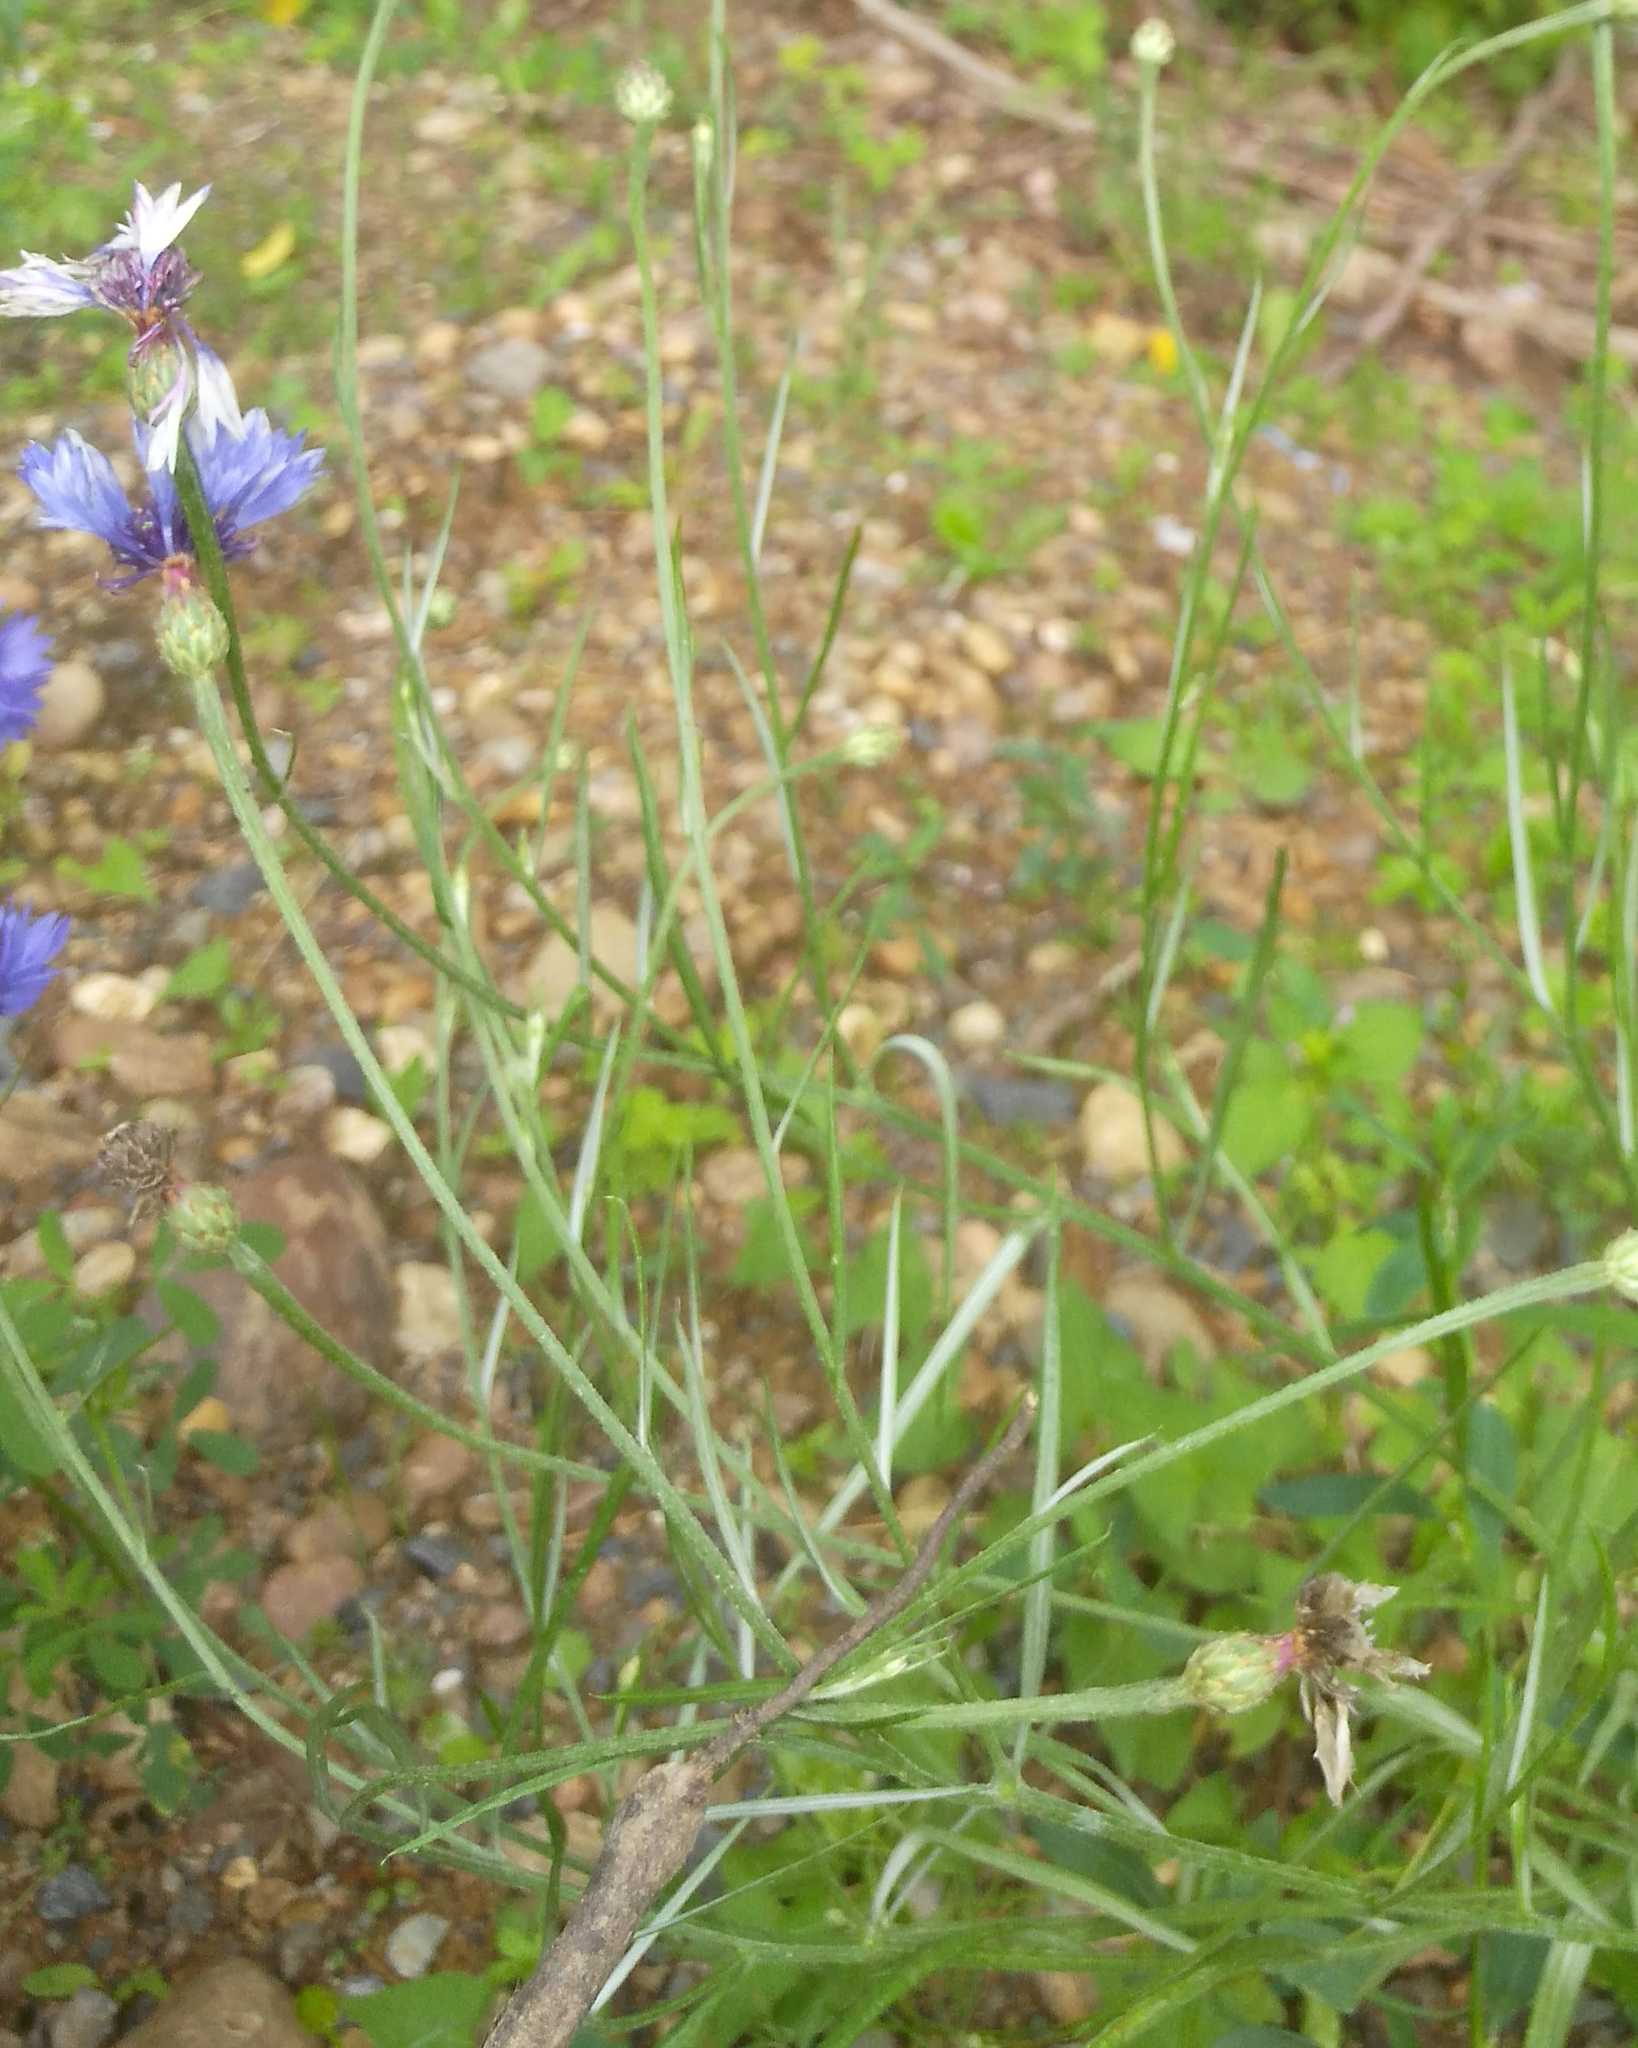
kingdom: Plantae
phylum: Tracheophyta
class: Magnoliopsida
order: Asterales
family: Asteraceae
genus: Centaurea
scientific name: Centaurea cyanus
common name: Cornflower
